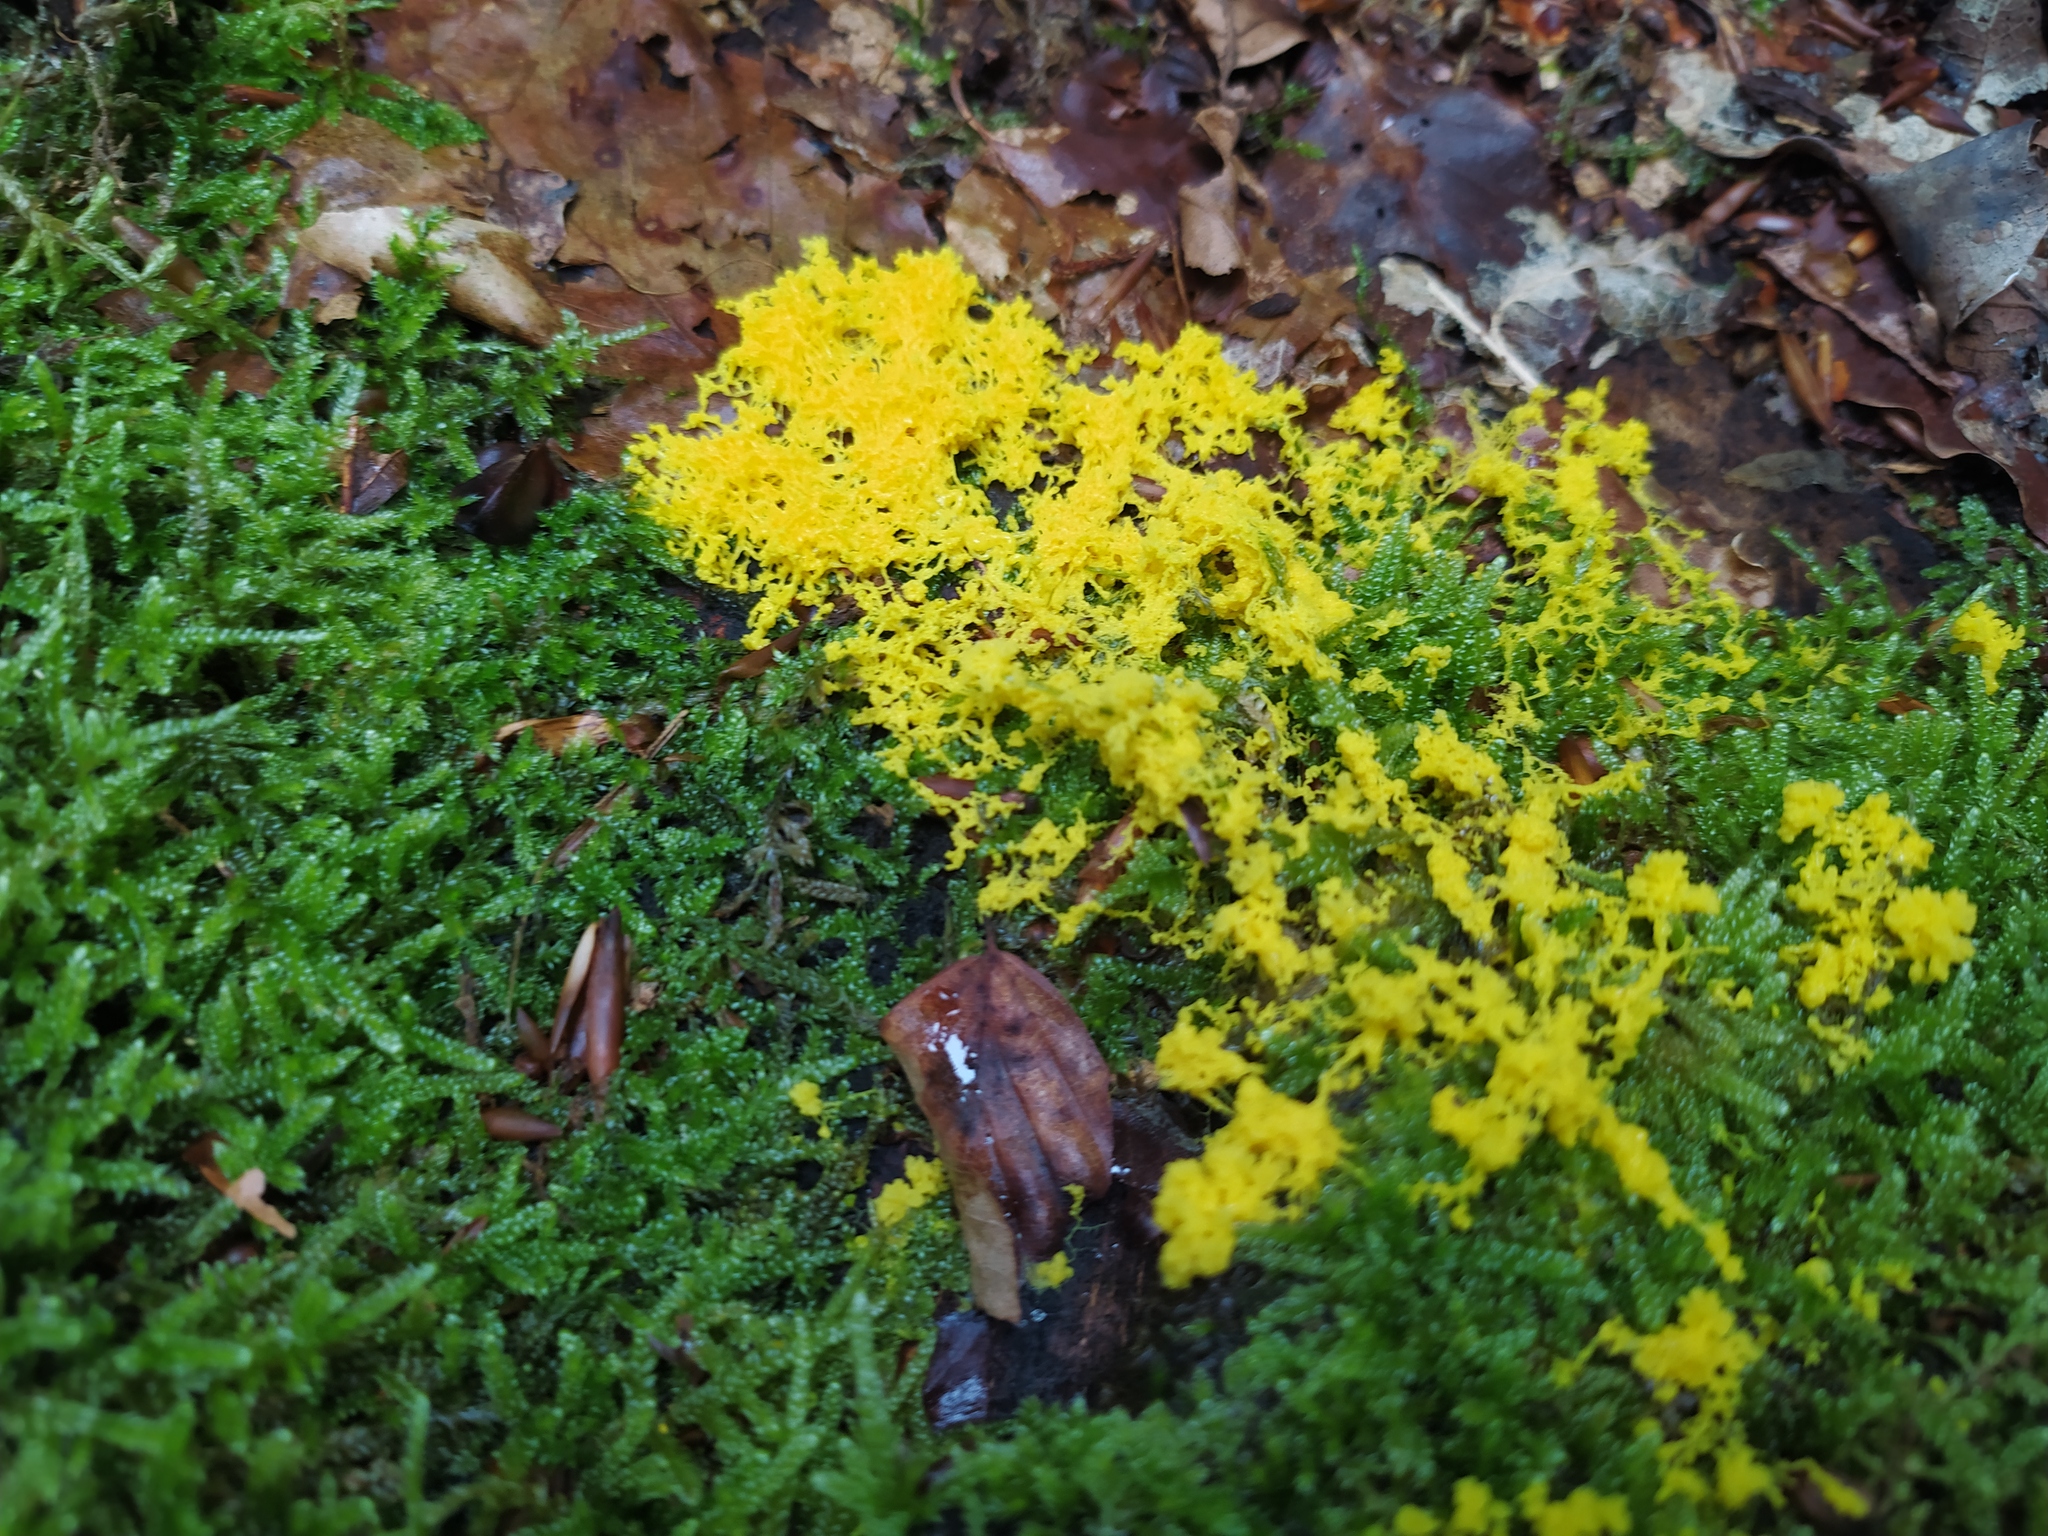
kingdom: Protozoa
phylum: Mycetozoa
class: Myxomycetes
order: Physarales
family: Physaraceae
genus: Fuligo
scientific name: Fuligo septica
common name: Dog vomit slime mold
